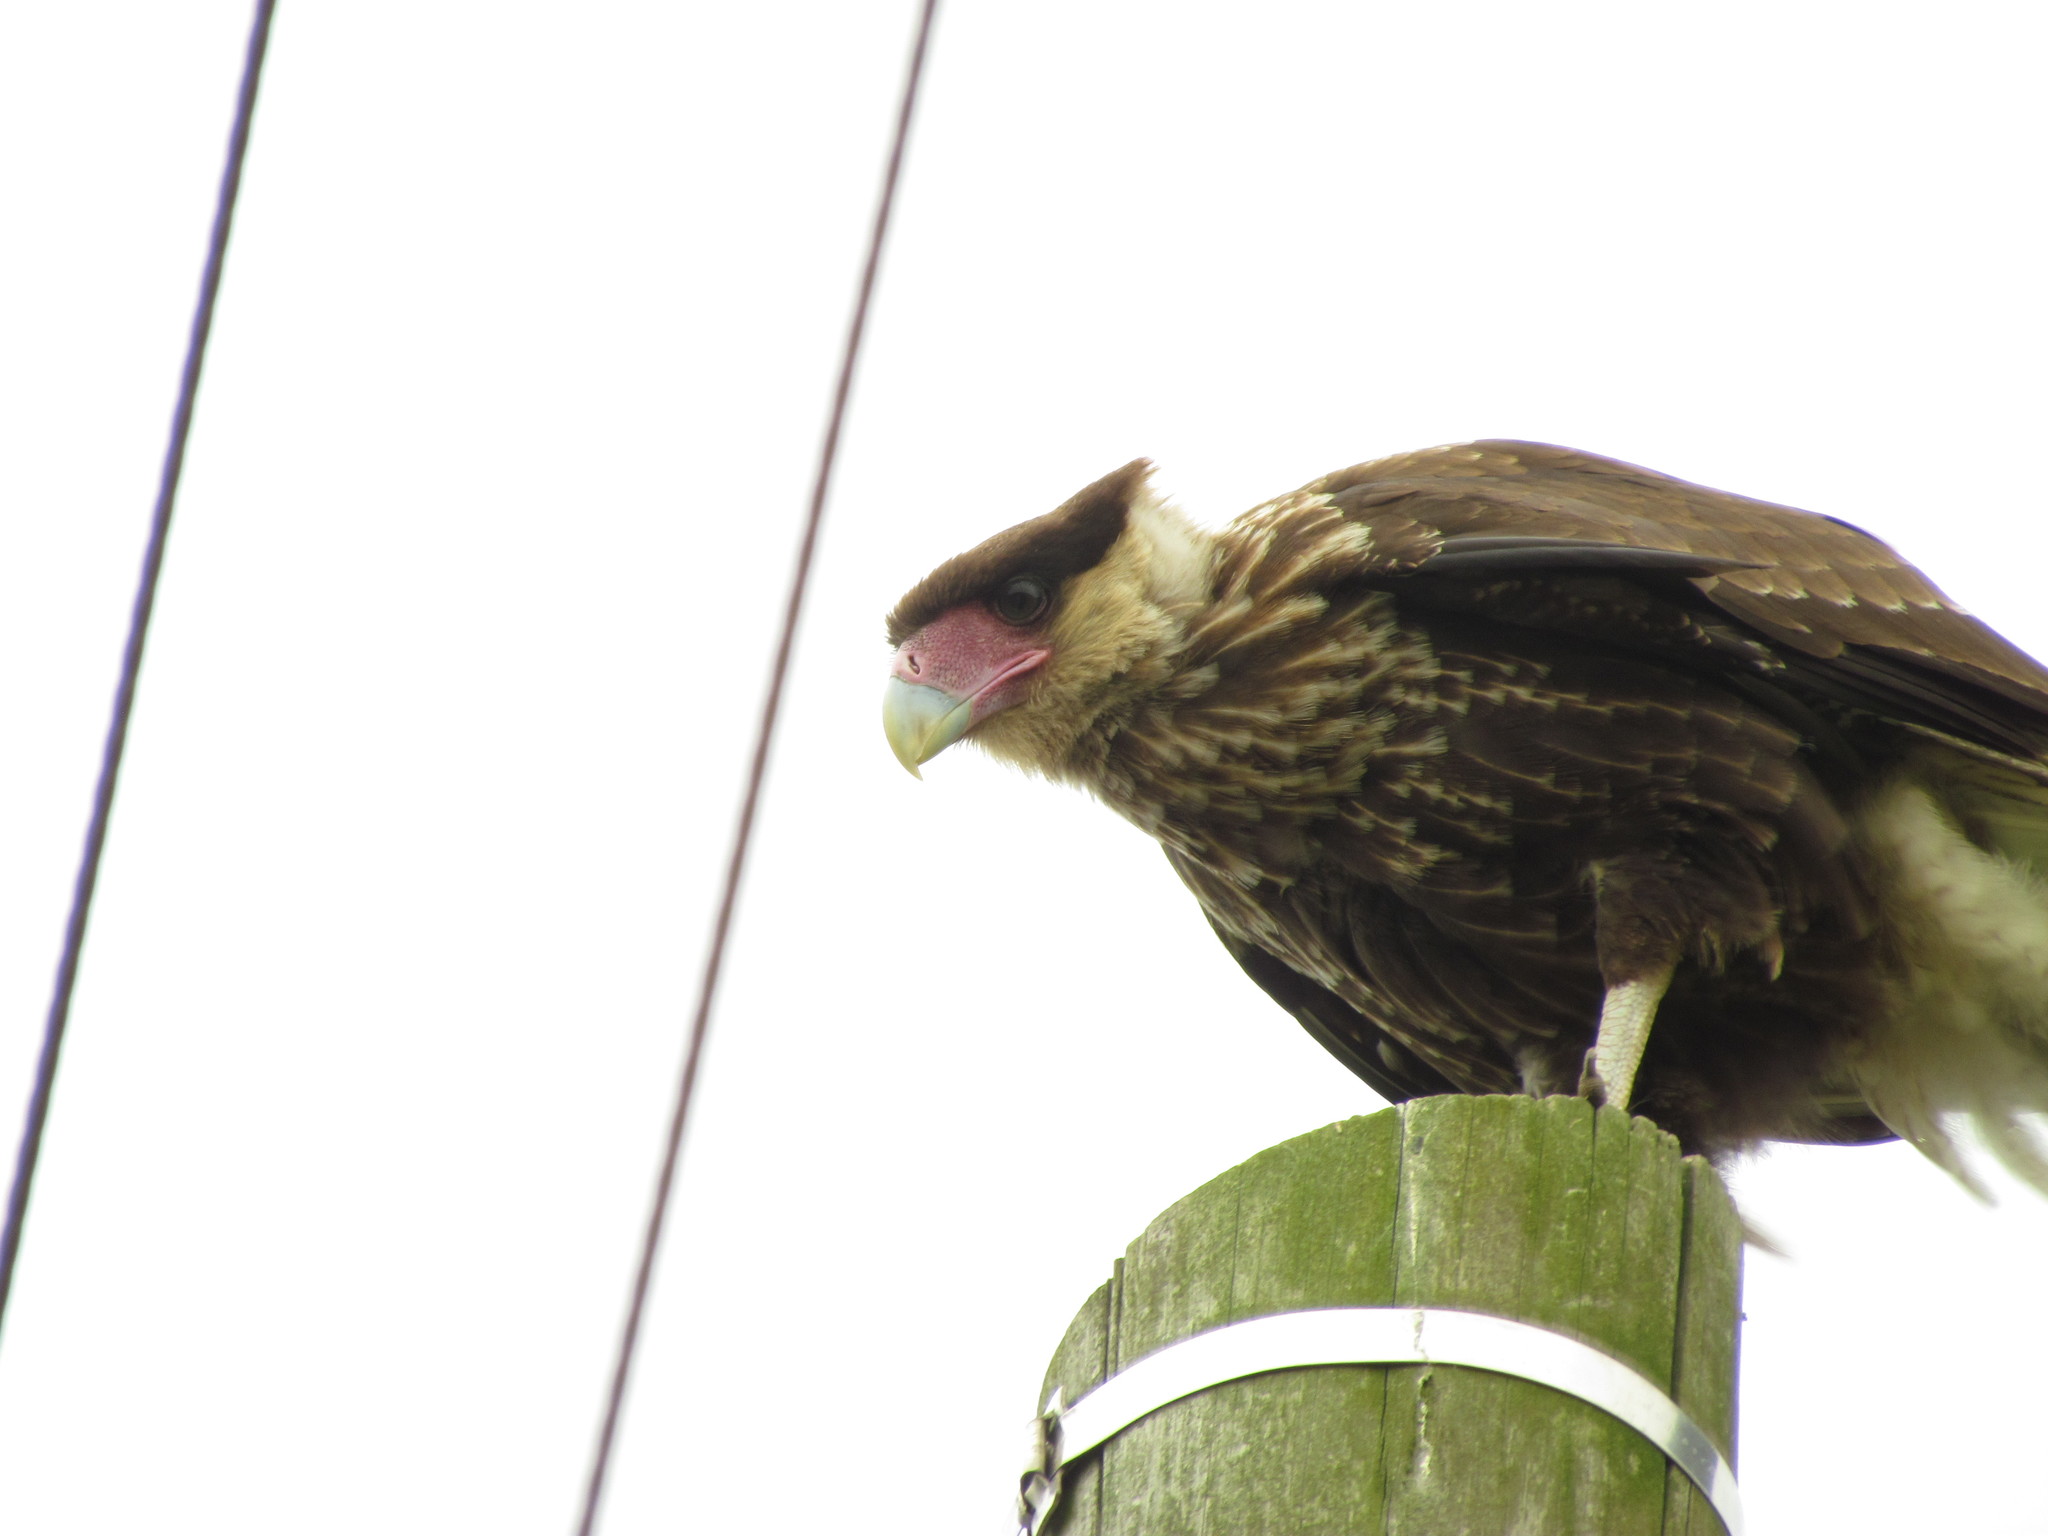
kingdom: Animalia
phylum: Chordata
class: Aves
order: Falconiformes
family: Falconidae
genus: Caracara
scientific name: Caracara plancus
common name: Southern caracara
